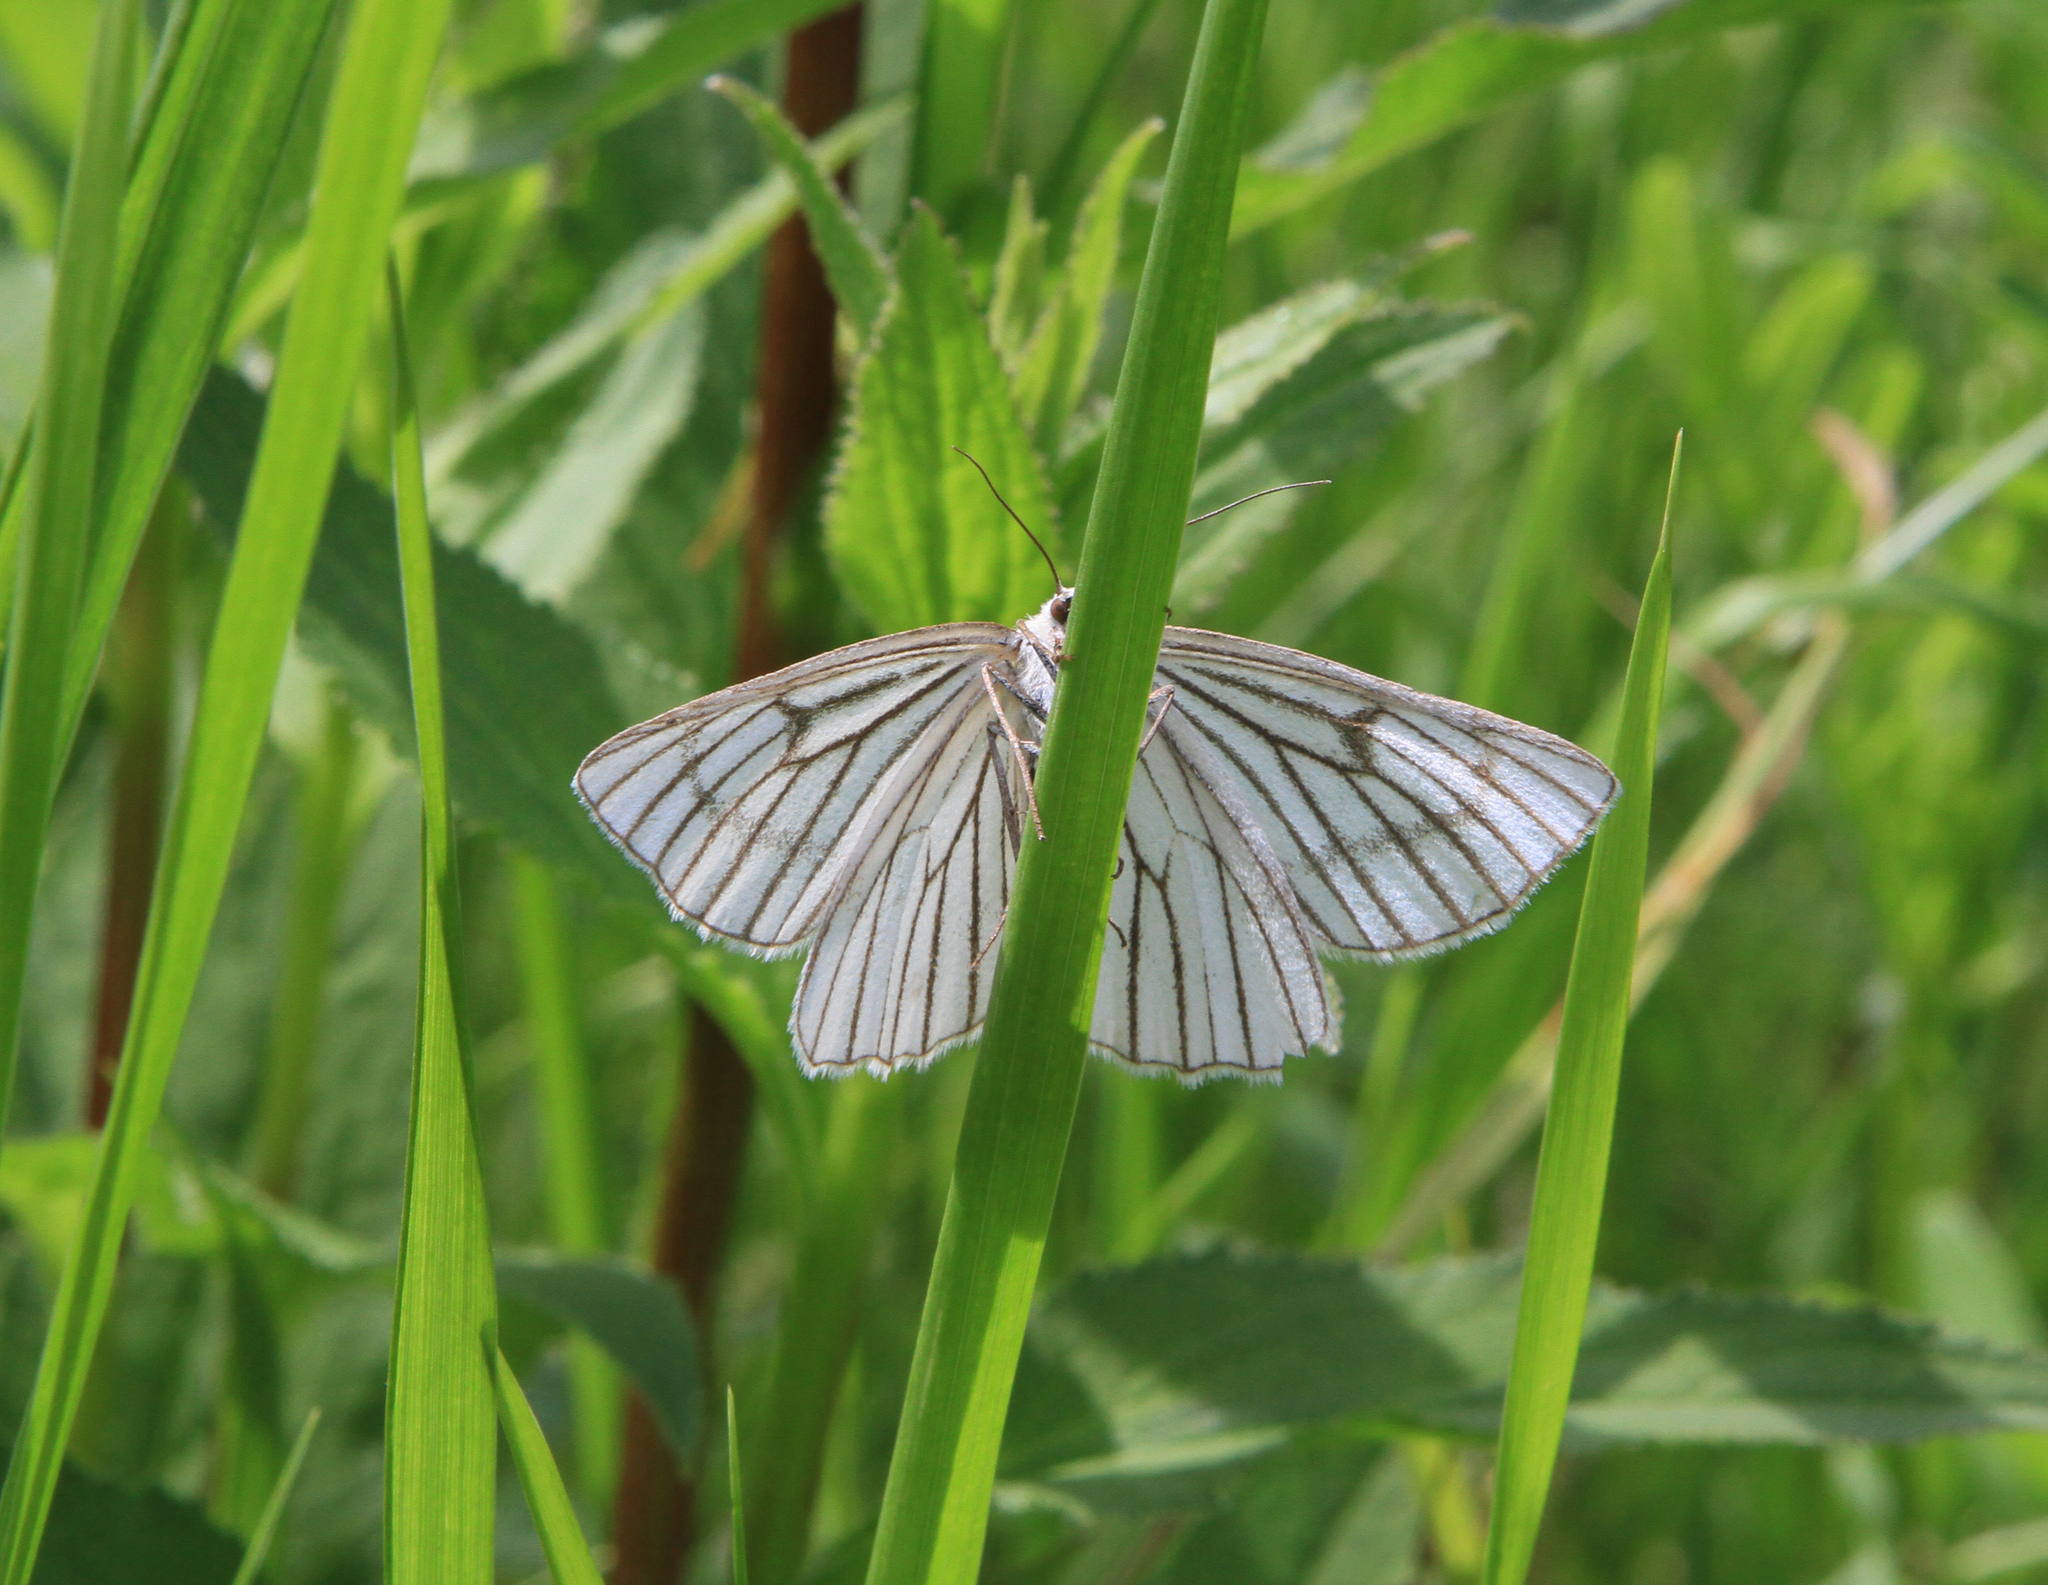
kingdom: Animalia
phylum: Arthropoda
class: Insecta
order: Lepidoptera
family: Geometridae
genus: Siona
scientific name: Siona lineata
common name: Black-veined moth
